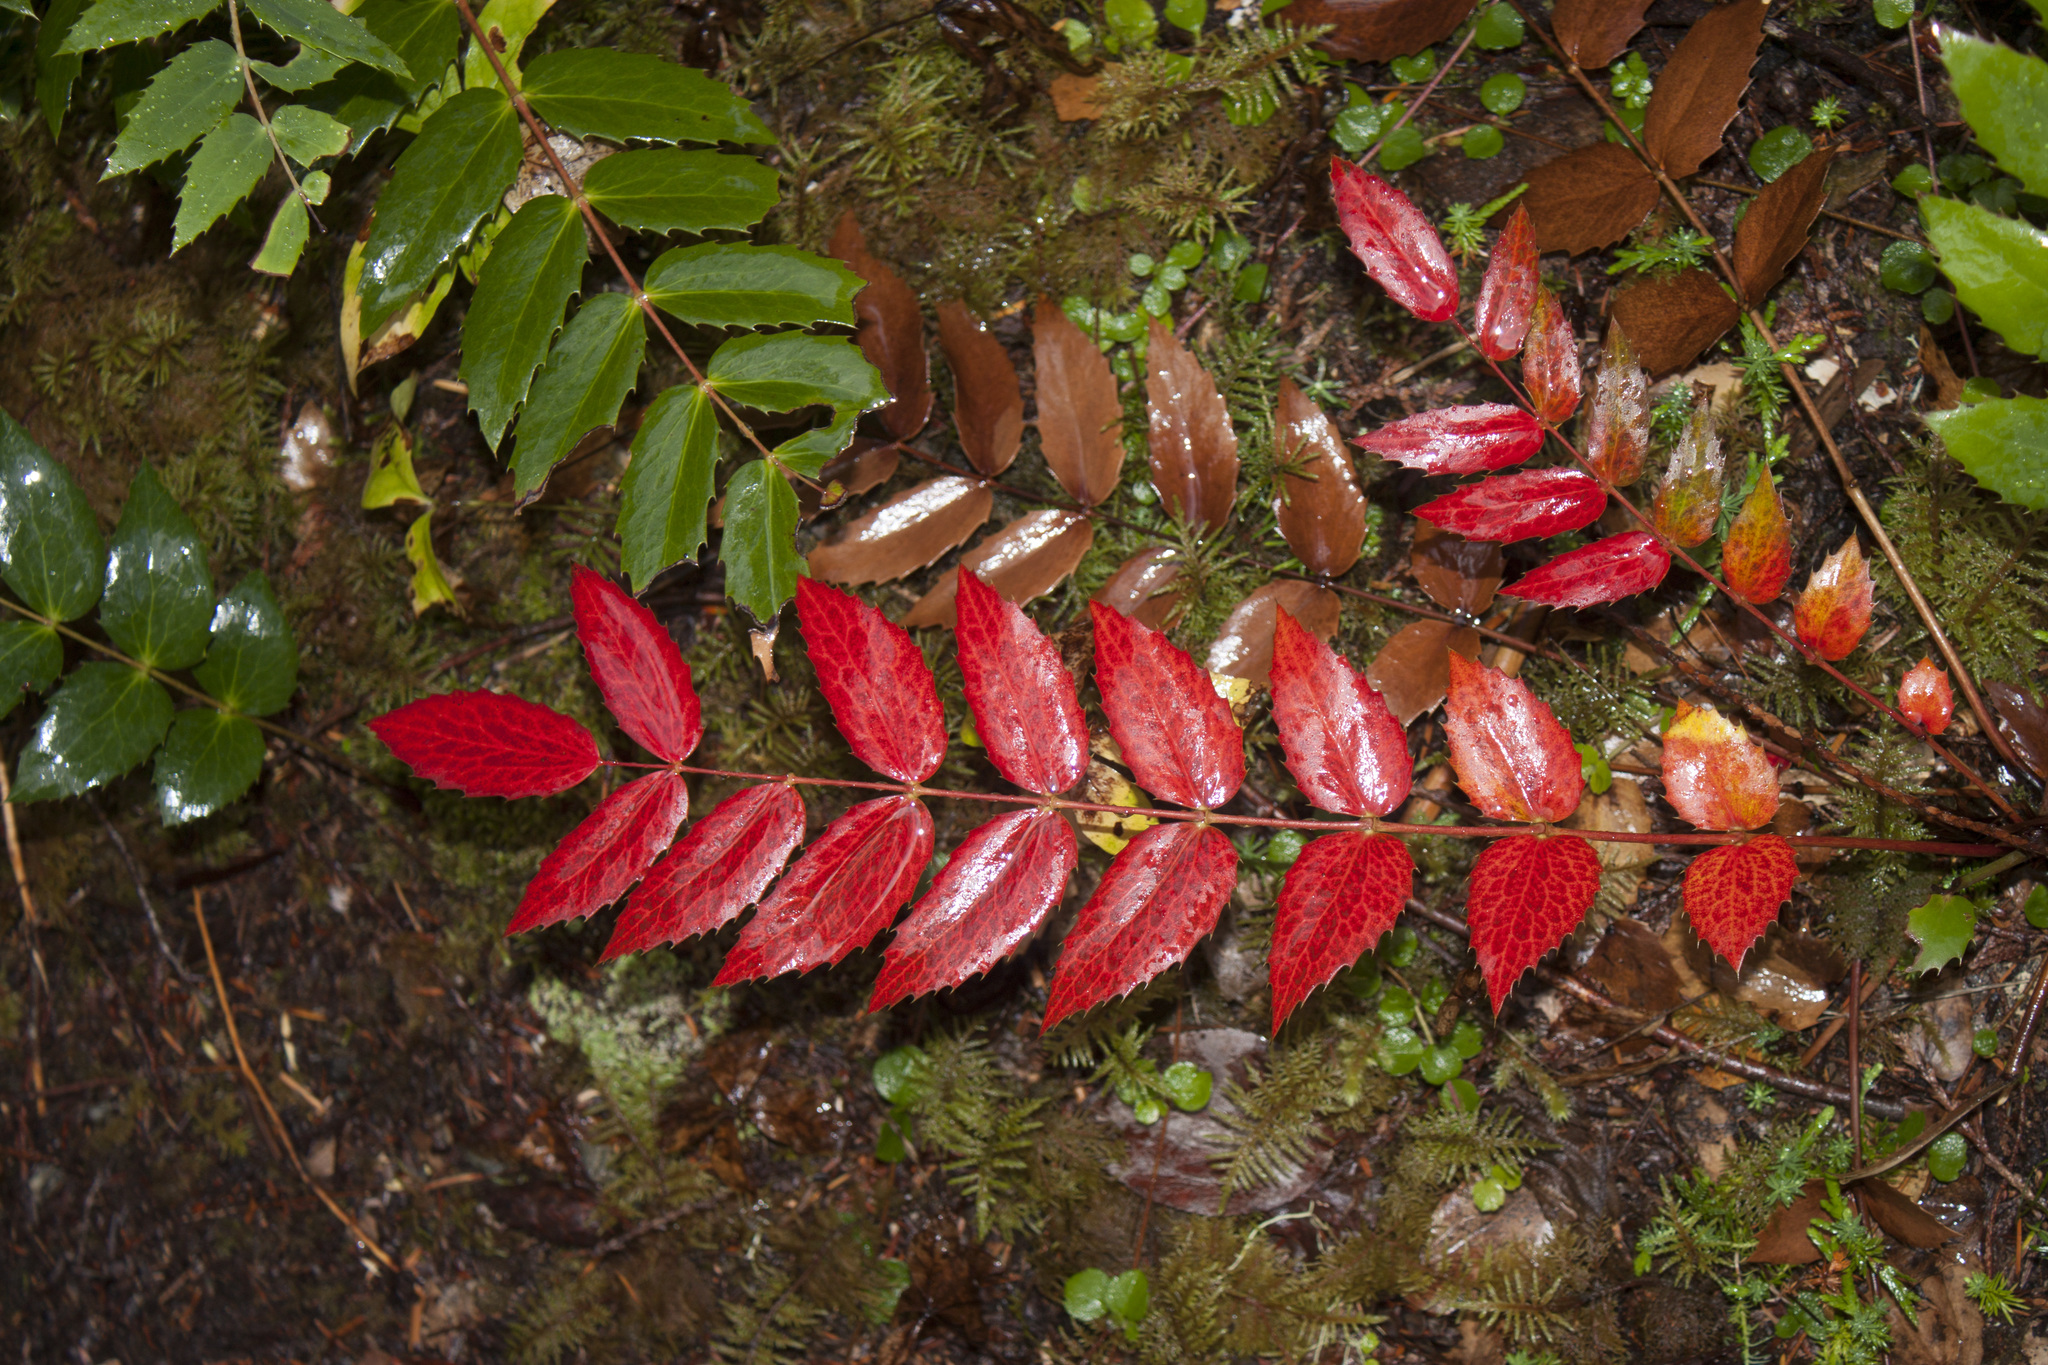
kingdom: Plantae
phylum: Tracheophyta
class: Magnoliopsida
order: Ranunculales
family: Berberidaceae
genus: Mahonia
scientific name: Mahonia nervosa
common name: Cascade oregon-grape
